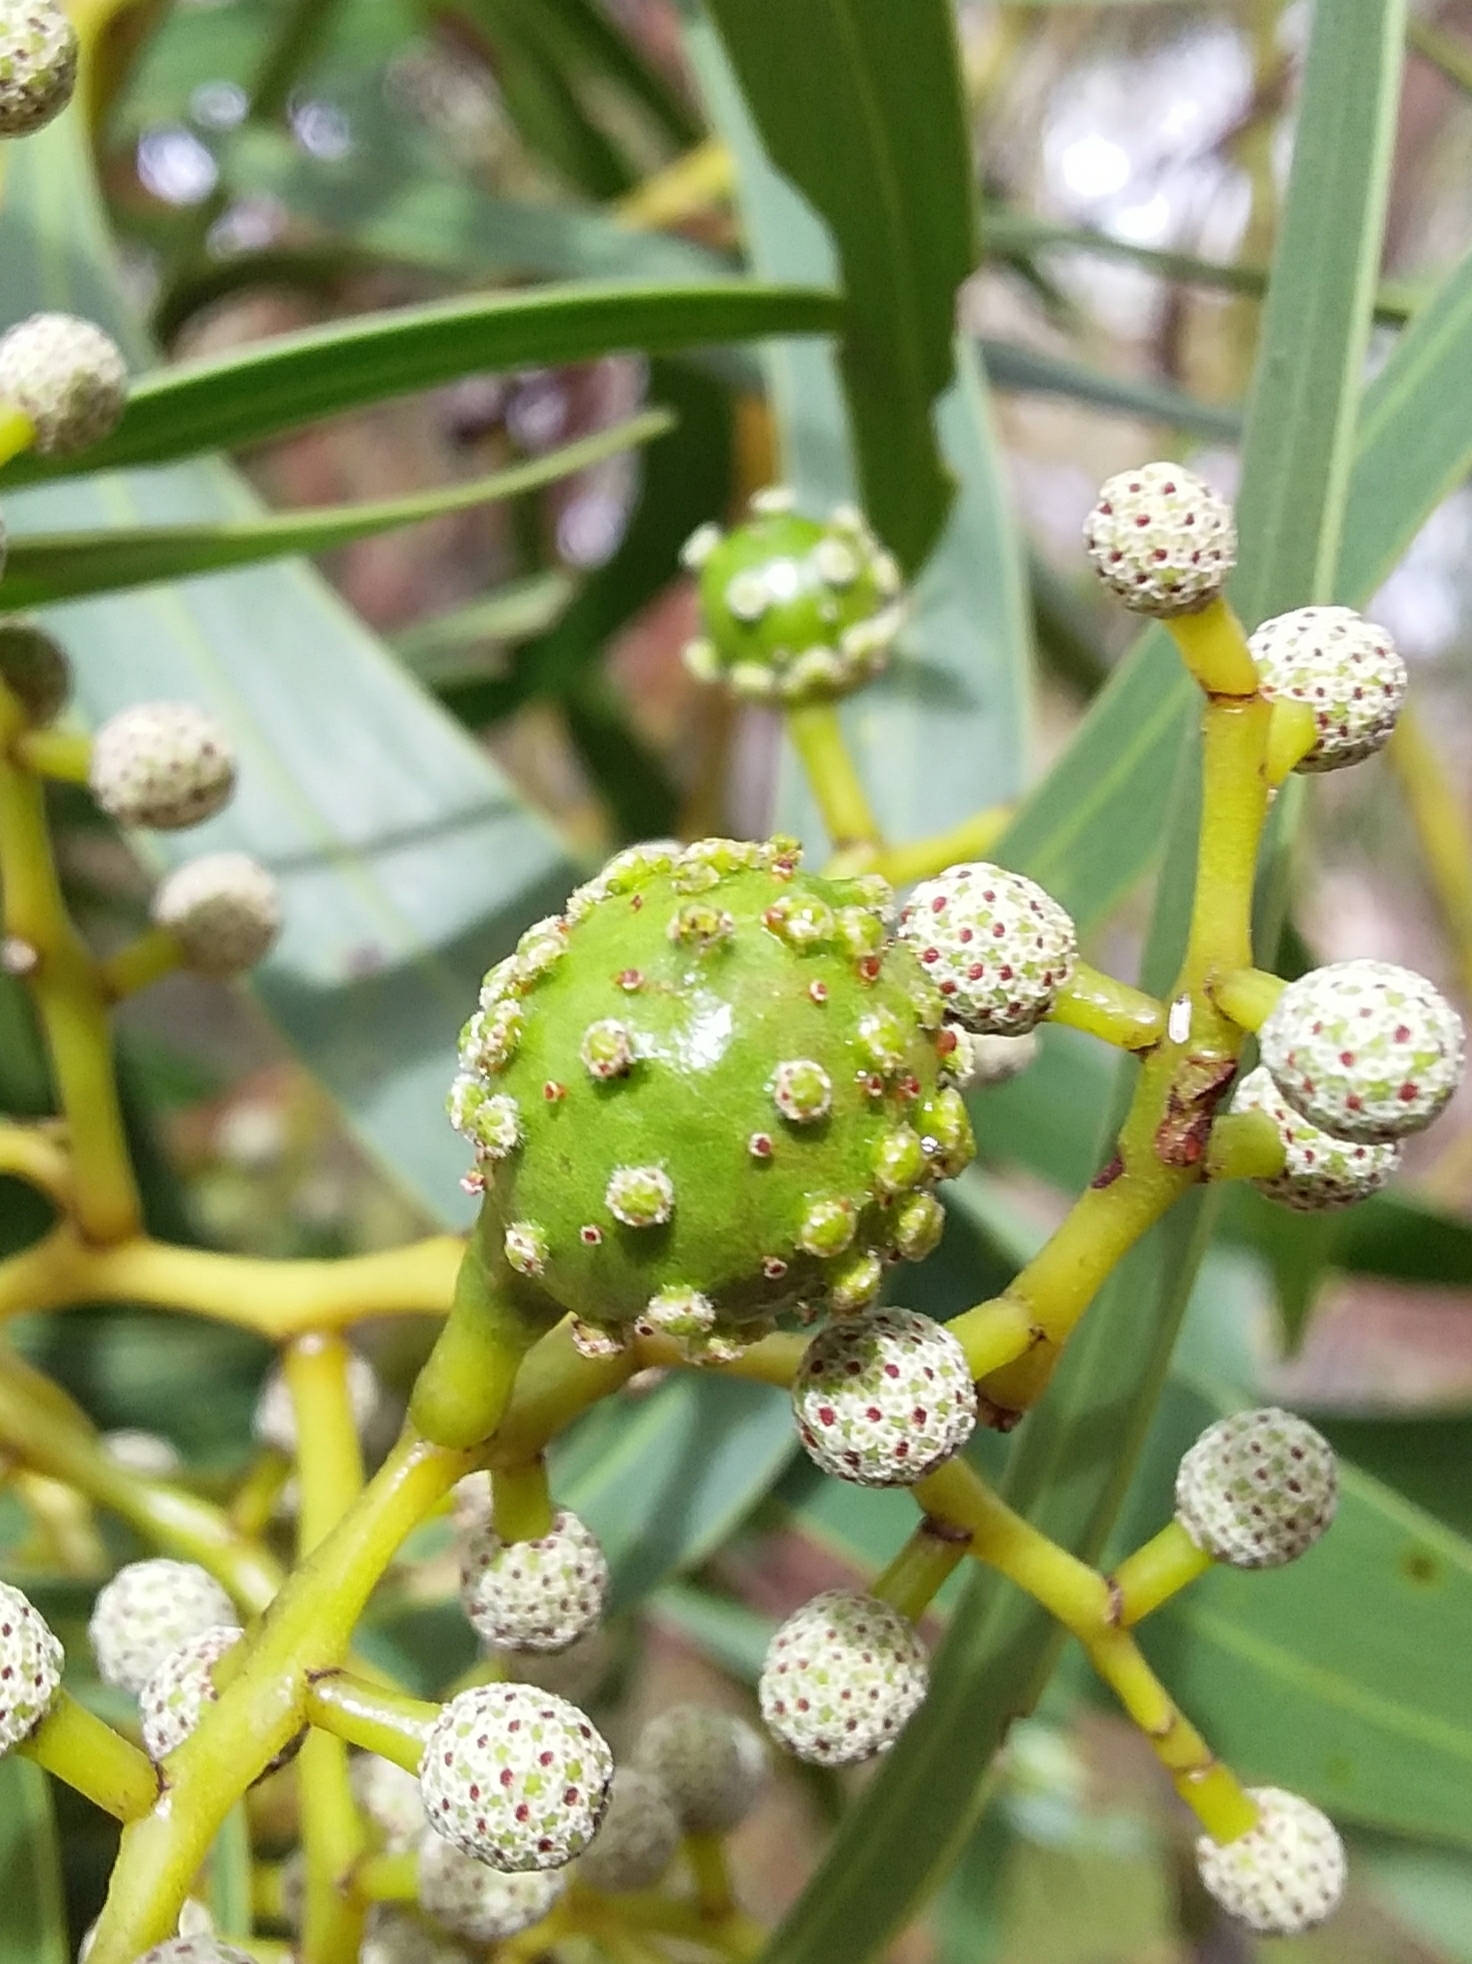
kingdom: Animalia
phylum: Arthropoda
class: Insecta
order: Hymenoptera
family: Pteromalidae
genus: Trichilogaster
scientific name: Trichilogaster signiventris
